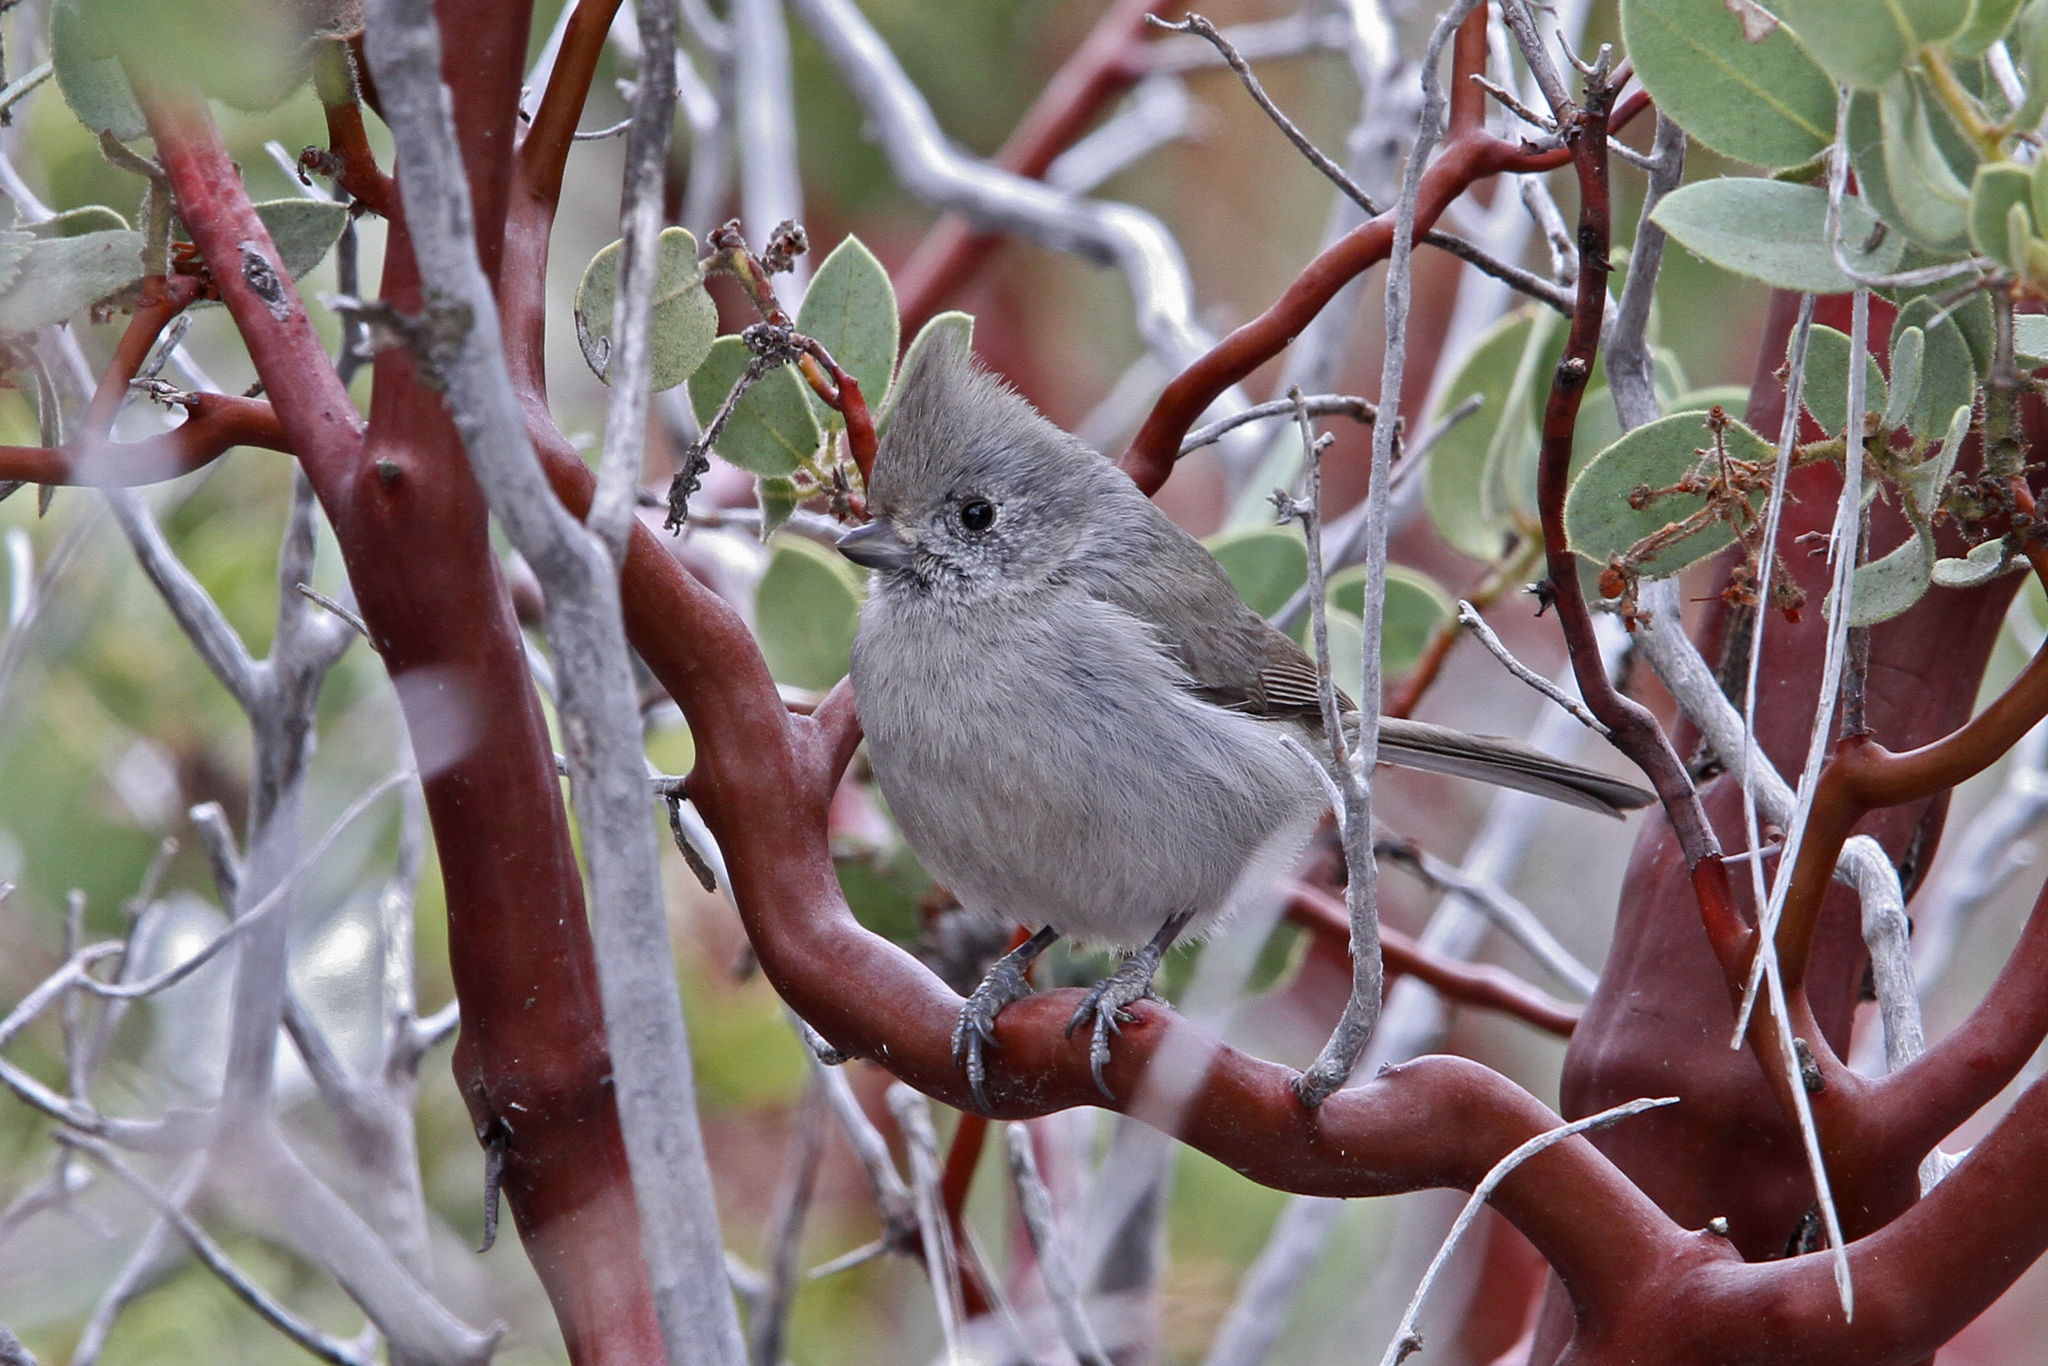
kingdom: Animalia
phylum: Chordata
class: Aves
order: Passeriformes
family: Paridae
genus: Baeolophus
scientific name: Baeolophus inornatus
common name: Oak titmouse
